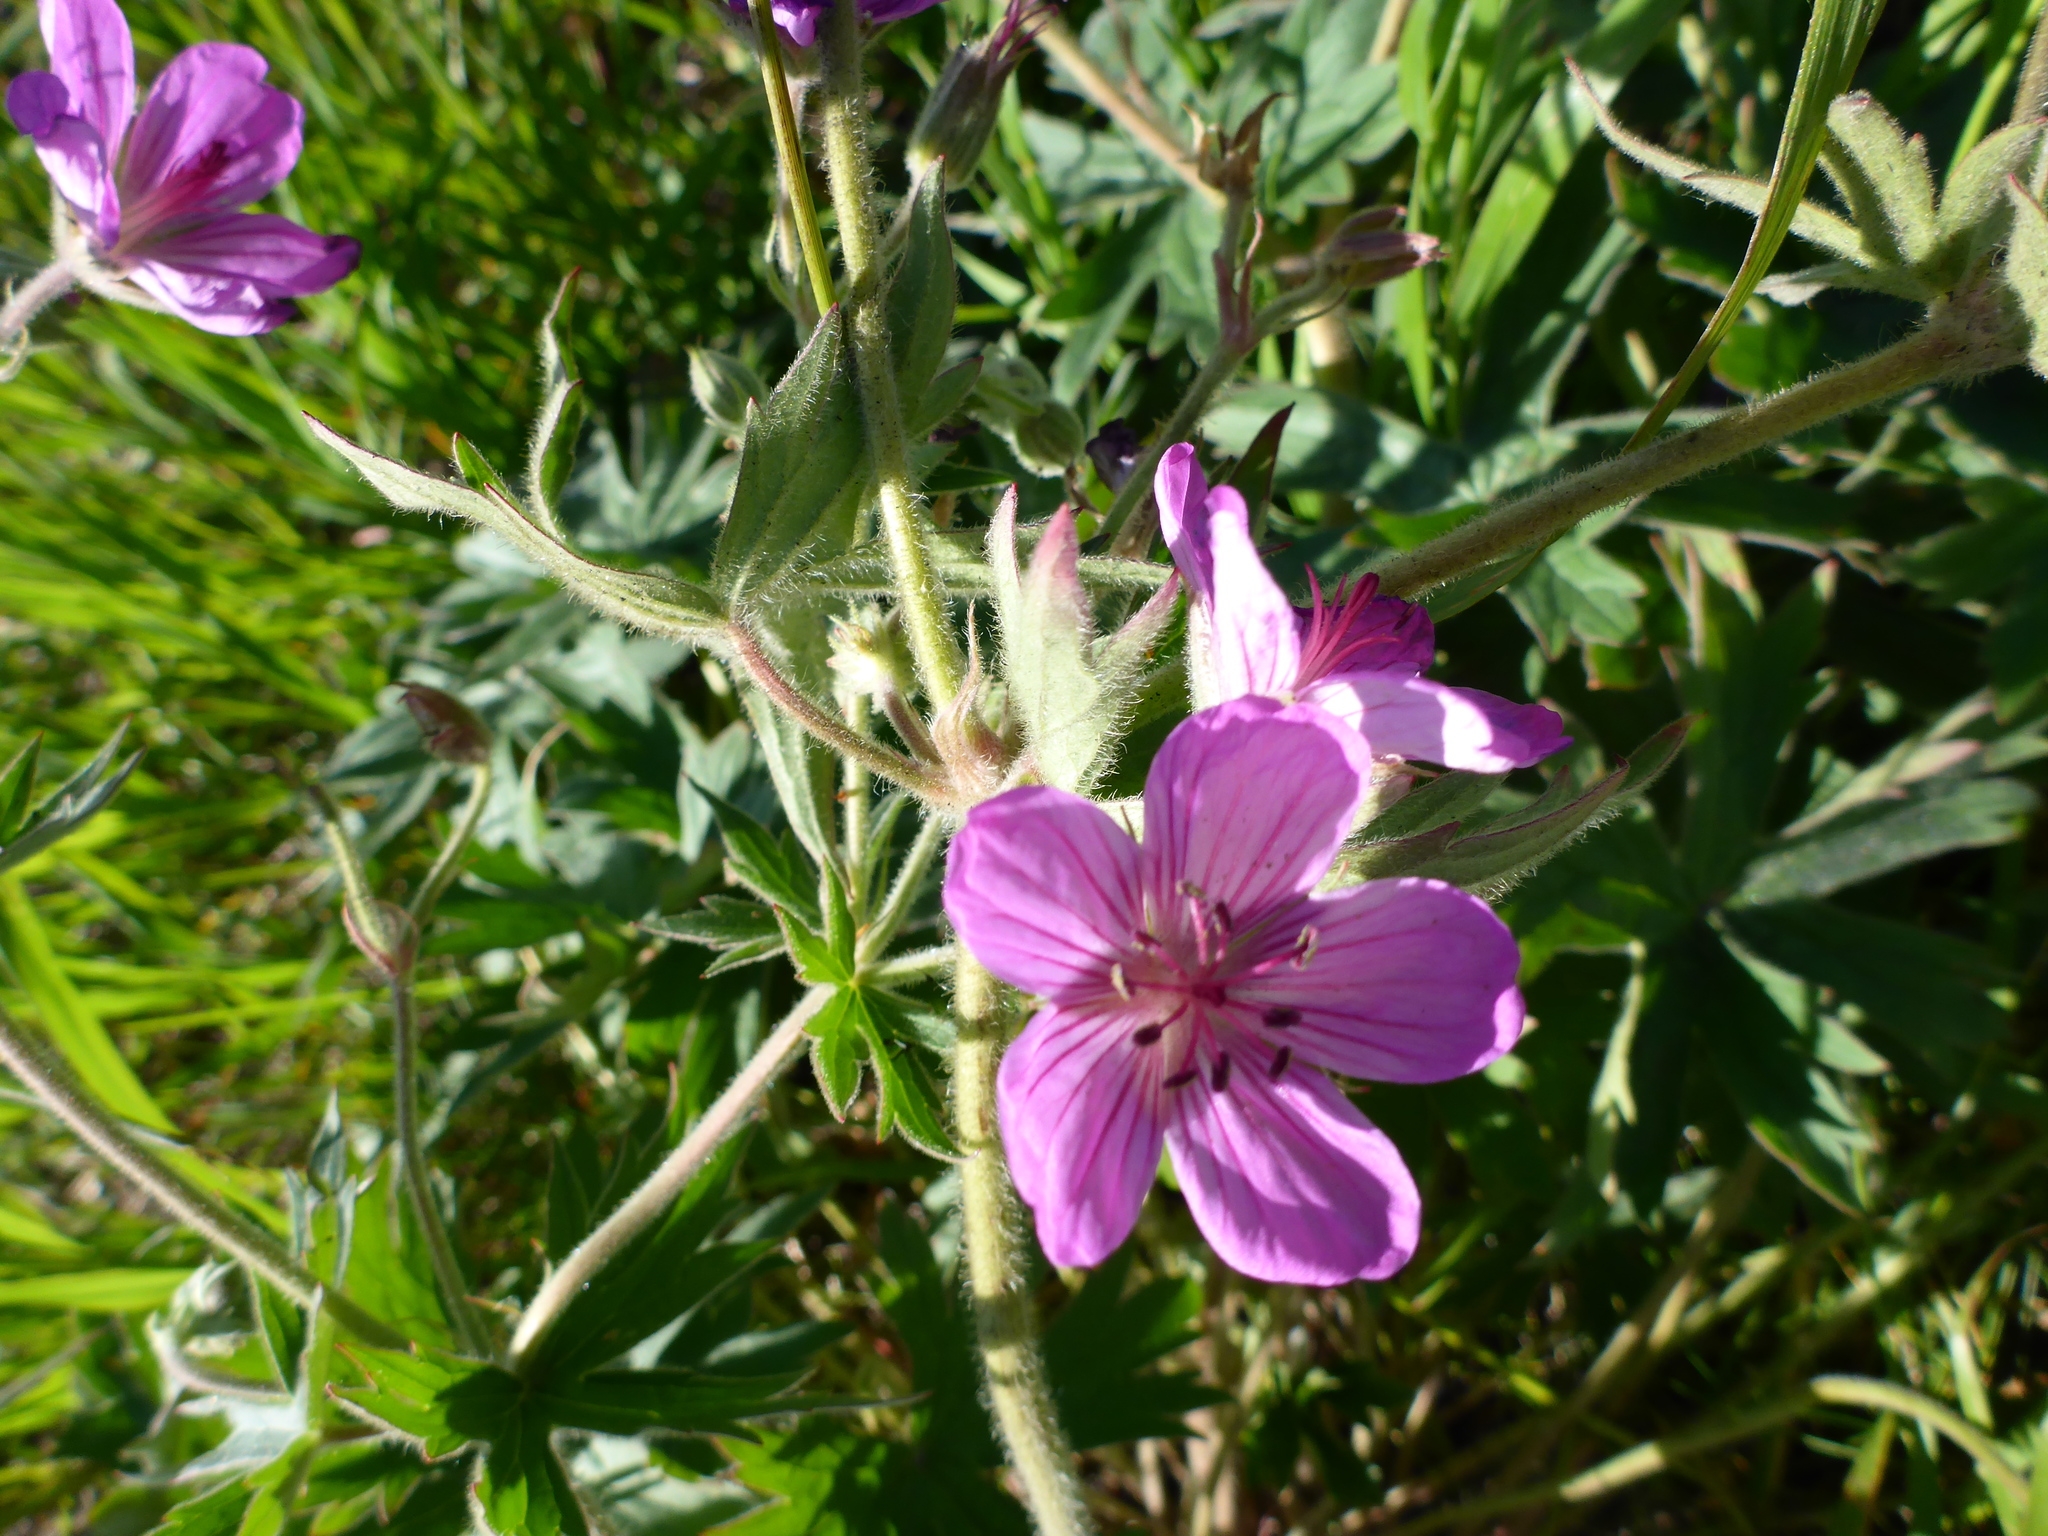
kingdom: Plantae
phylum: Tracheophyta
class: Magnoliopsida
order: Geraniales
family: Geraniaceae
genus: Geranium
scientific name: Geranium viscosissimum
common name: Purple geranium
